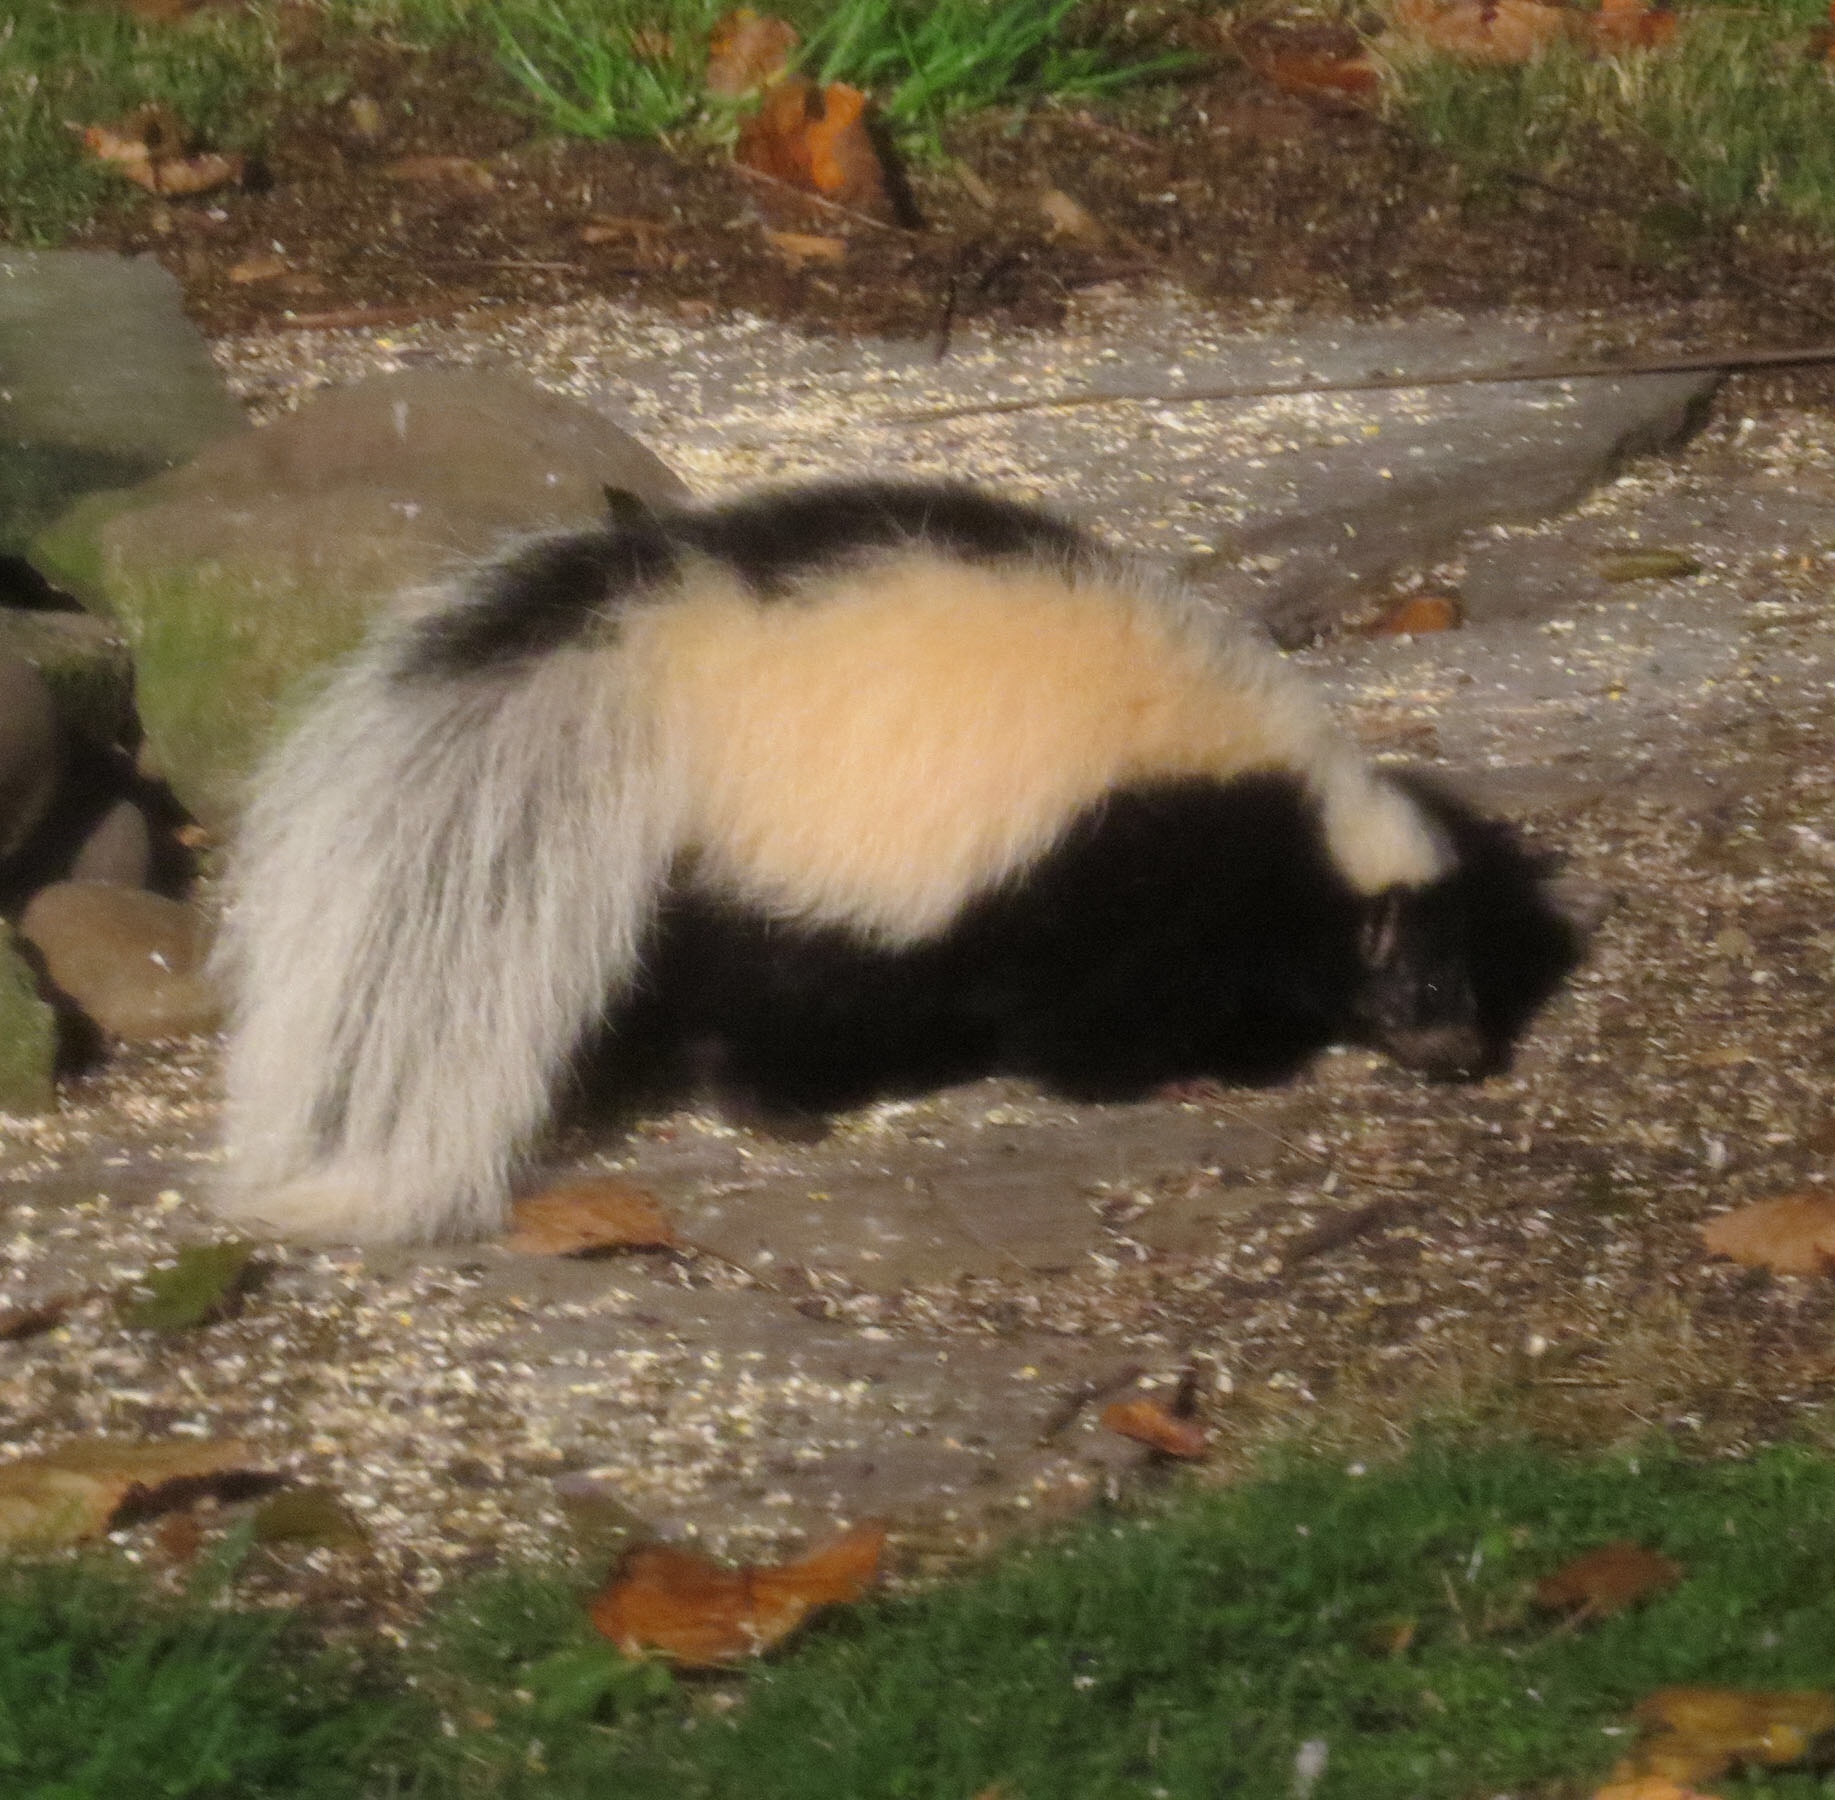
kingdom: Animalia
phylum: Chordata
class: Mammalia
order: Carnivora
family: Mephitidae
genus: Mephitis
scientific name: Mephitis mephitis
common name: Striped skunk
